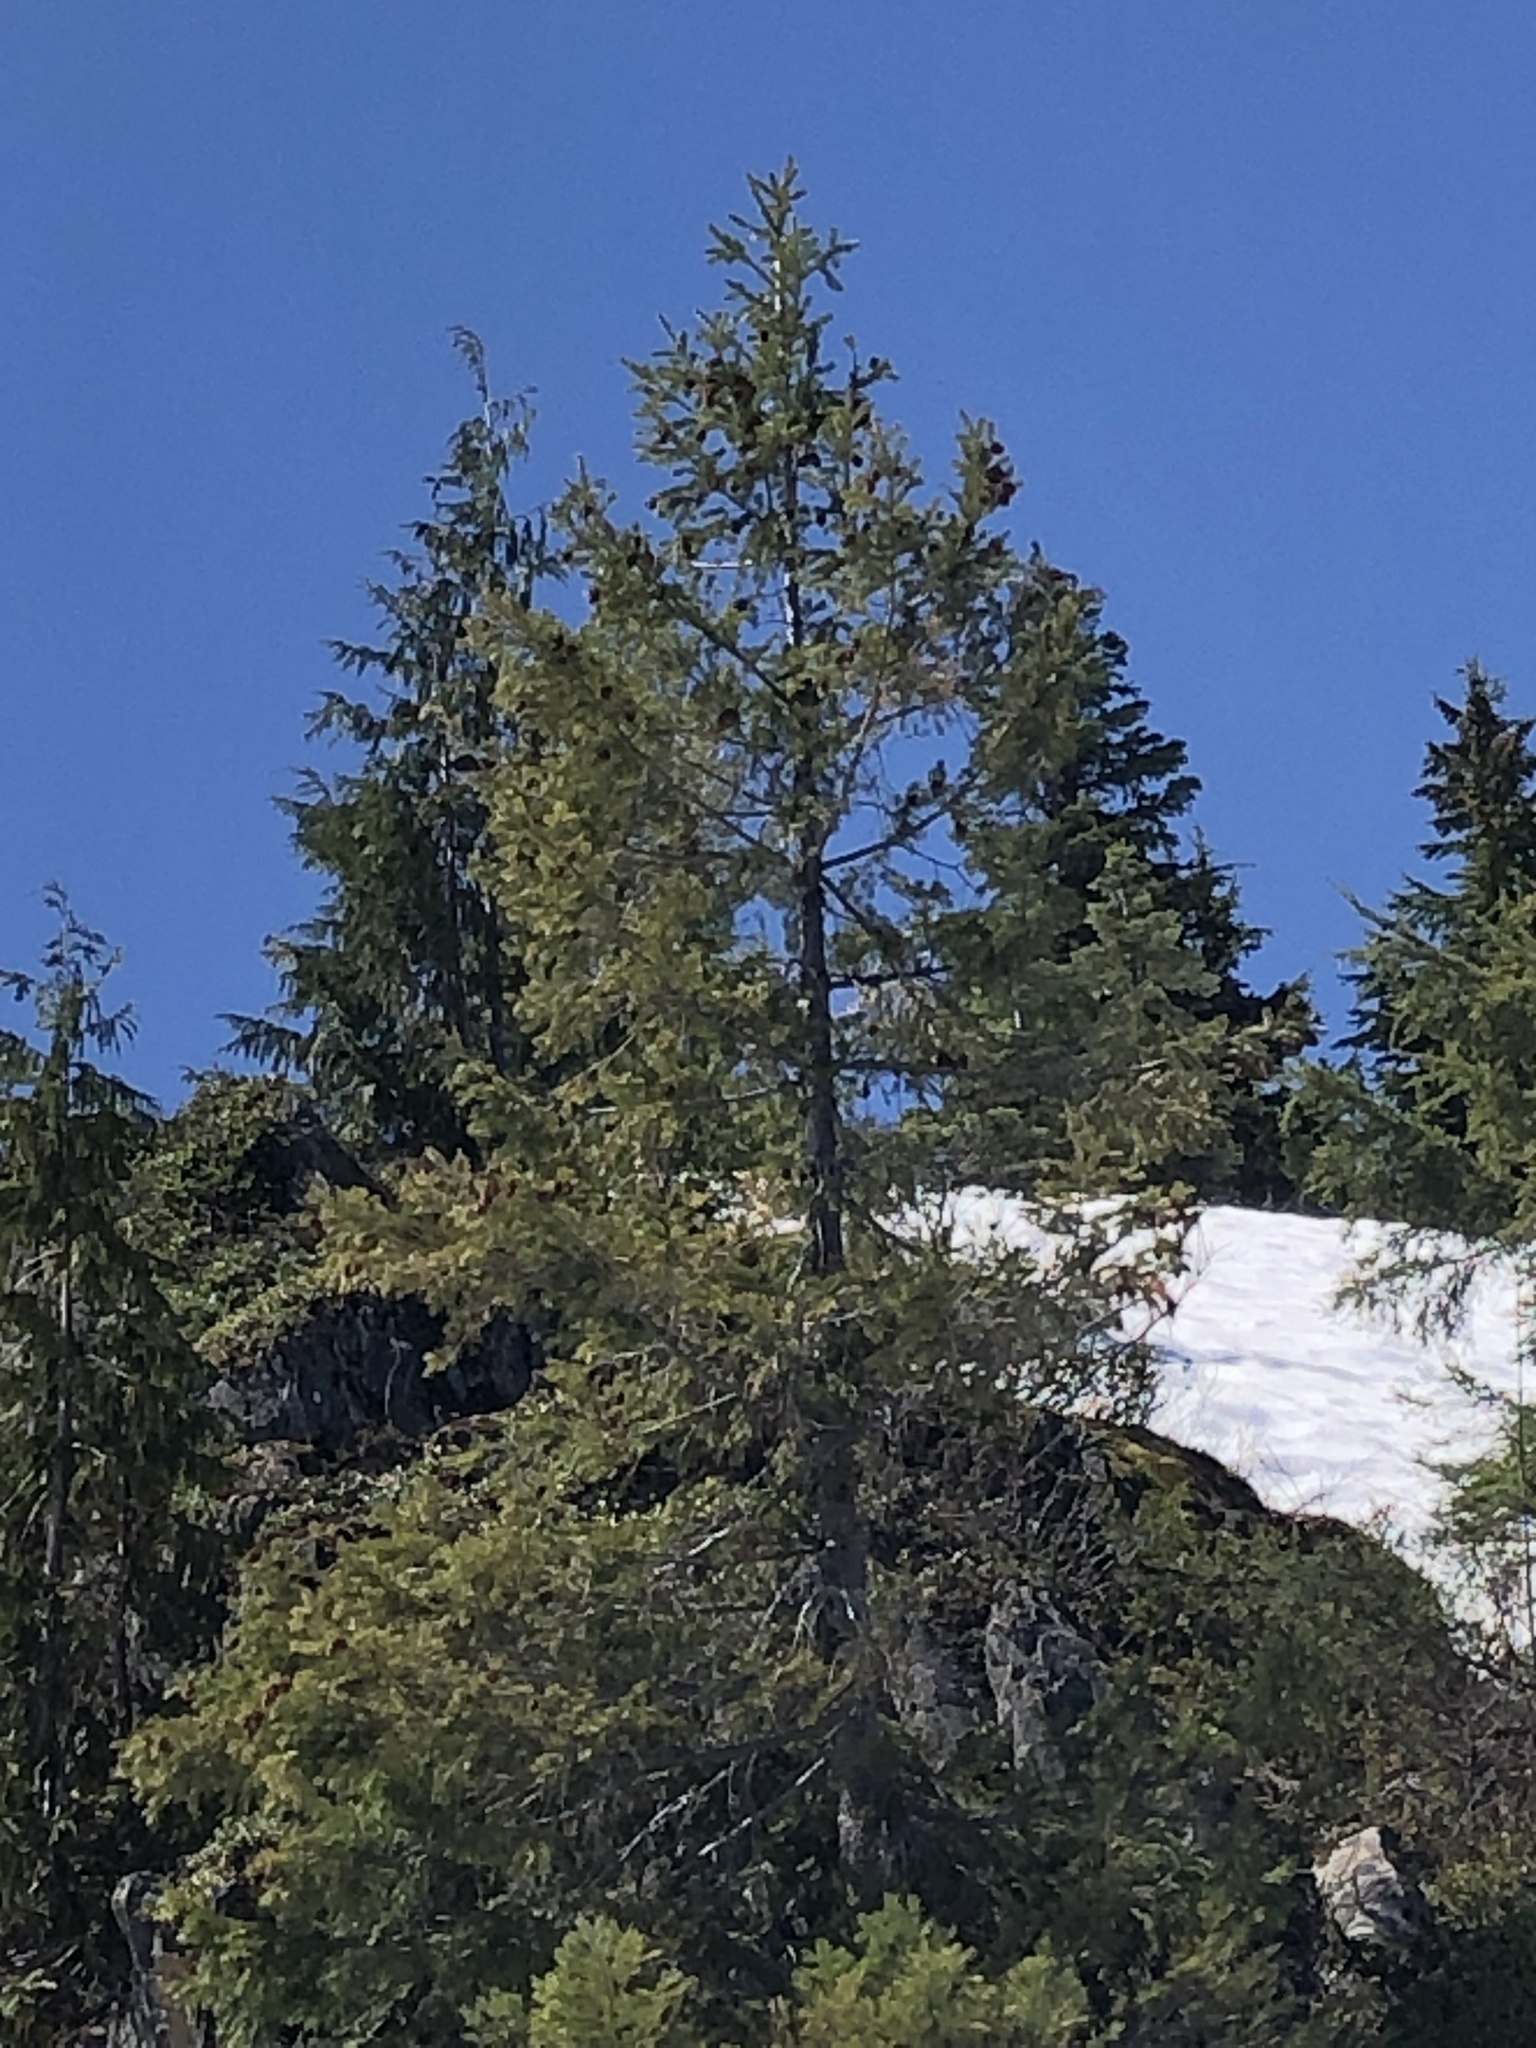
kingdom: Plantae
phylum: Tracheophyta
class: Pinopsida
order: Pinales
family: Pinaceae
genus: Pseudotsuga
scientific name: Pseudotsuga menziesii
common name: Douglas fir
